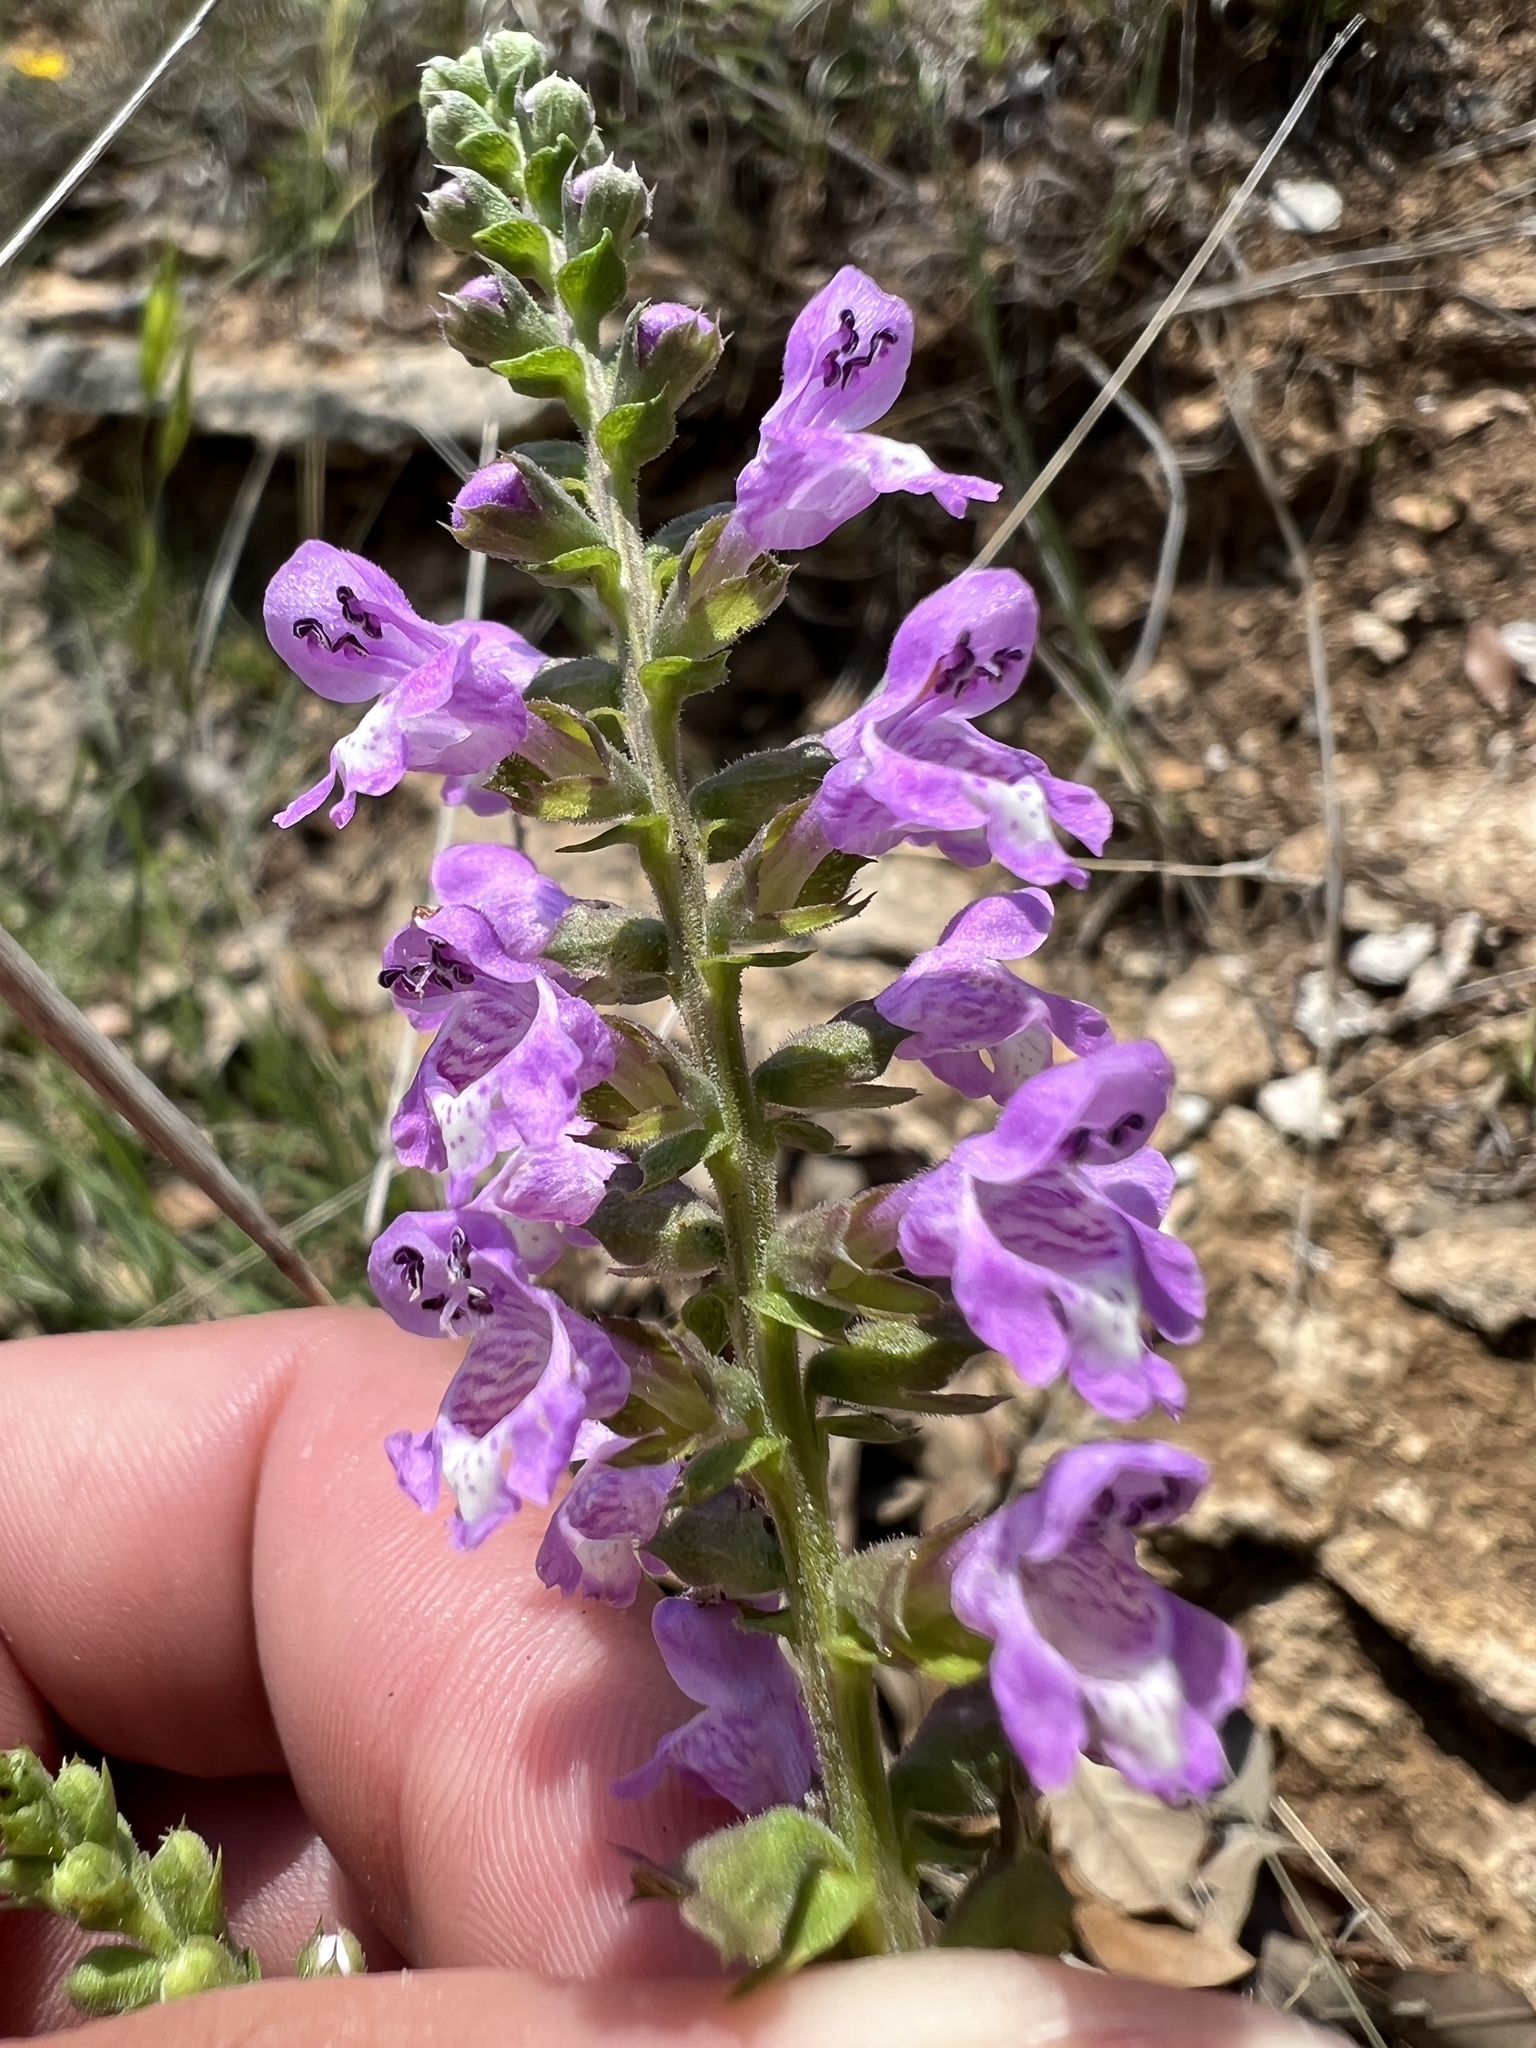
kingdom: Plantae
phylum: Tracheophyta
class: Magnoliopsida
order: Lamiales
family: Lamiaceae
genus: Warnockia
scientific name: Warnockia scutellarioides
